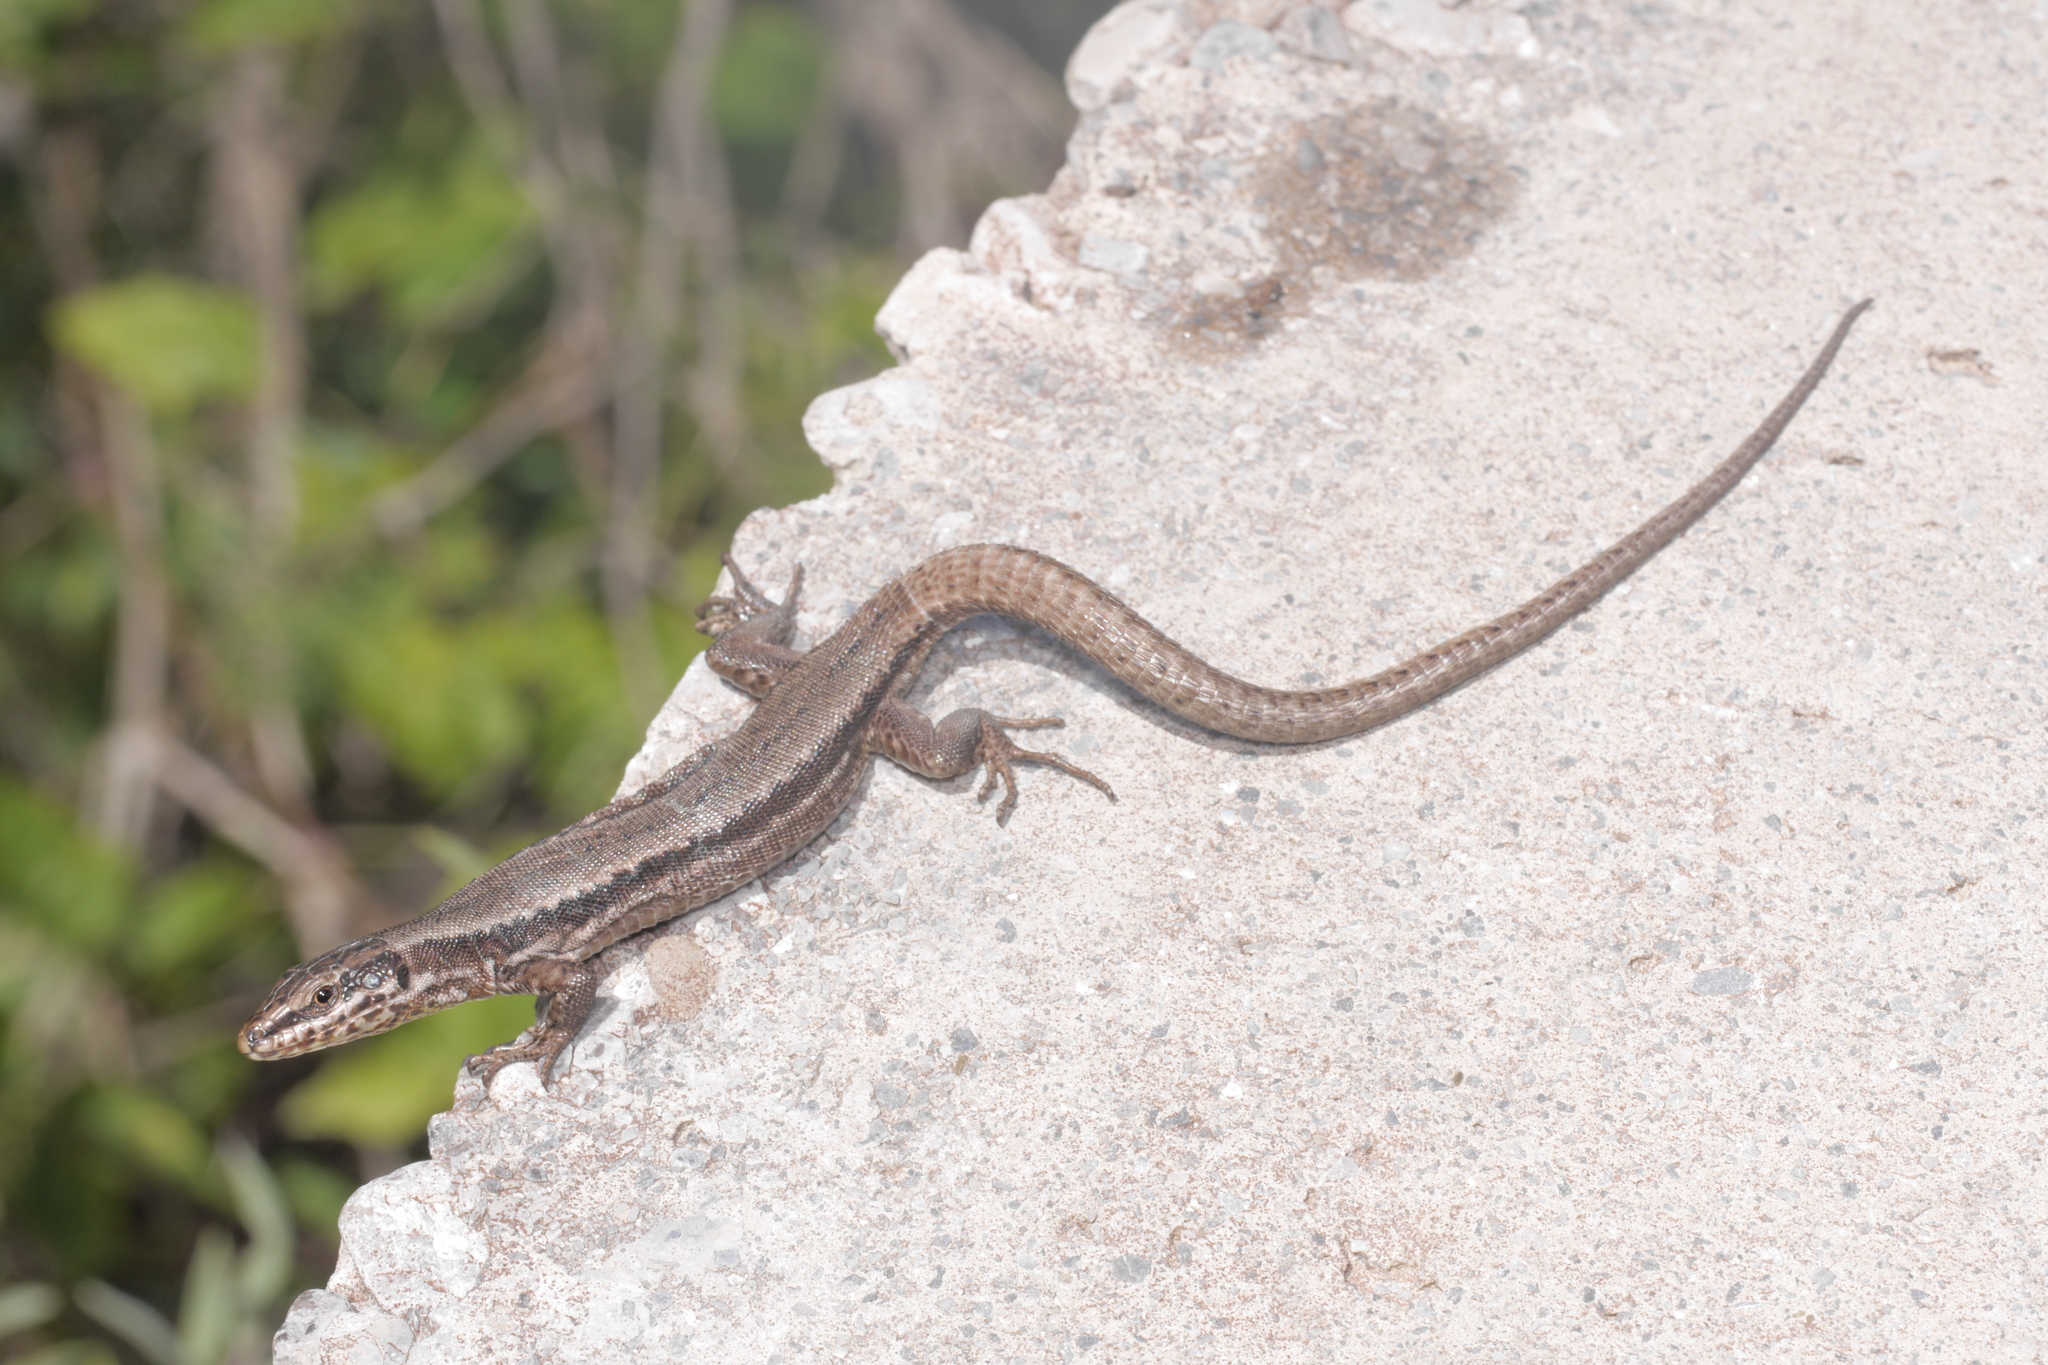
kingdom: Animalia
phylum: Chordata
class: Squamata
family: Lacertidae
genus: Podarcis
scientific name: Podarcis muralis
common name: Common wall lizard
